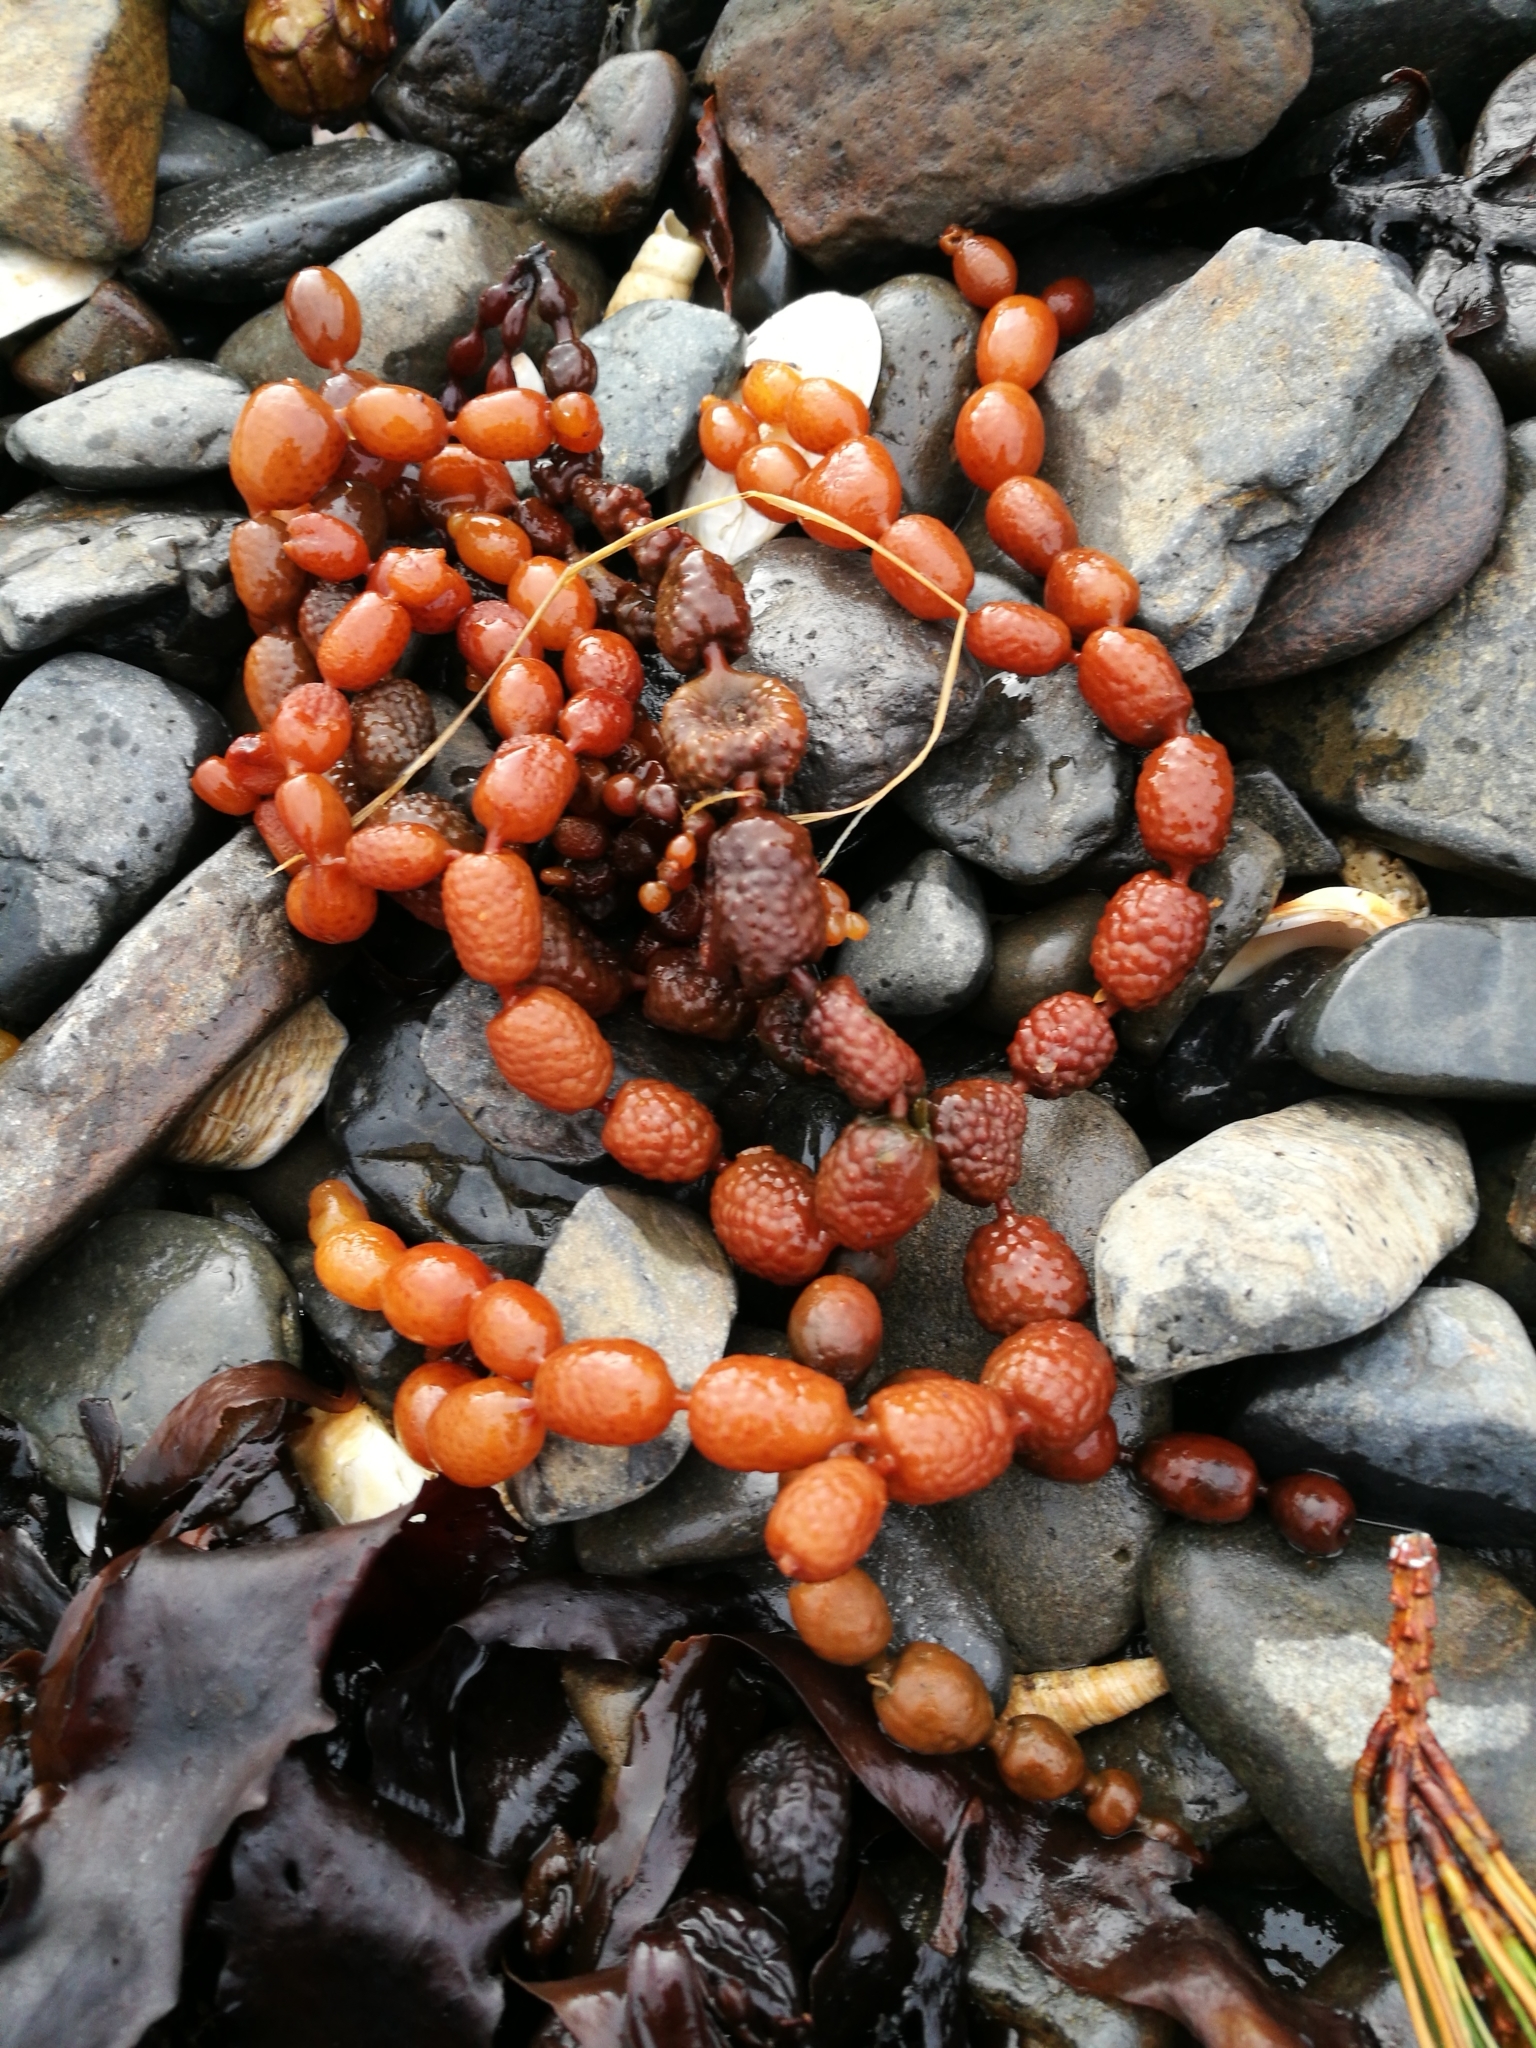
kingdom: Chromista
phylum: Ochrophyta
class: Phaeophyceae
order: Fucales
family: Hormosiraceae
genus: Hormosira
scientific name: Hormosira banksii
